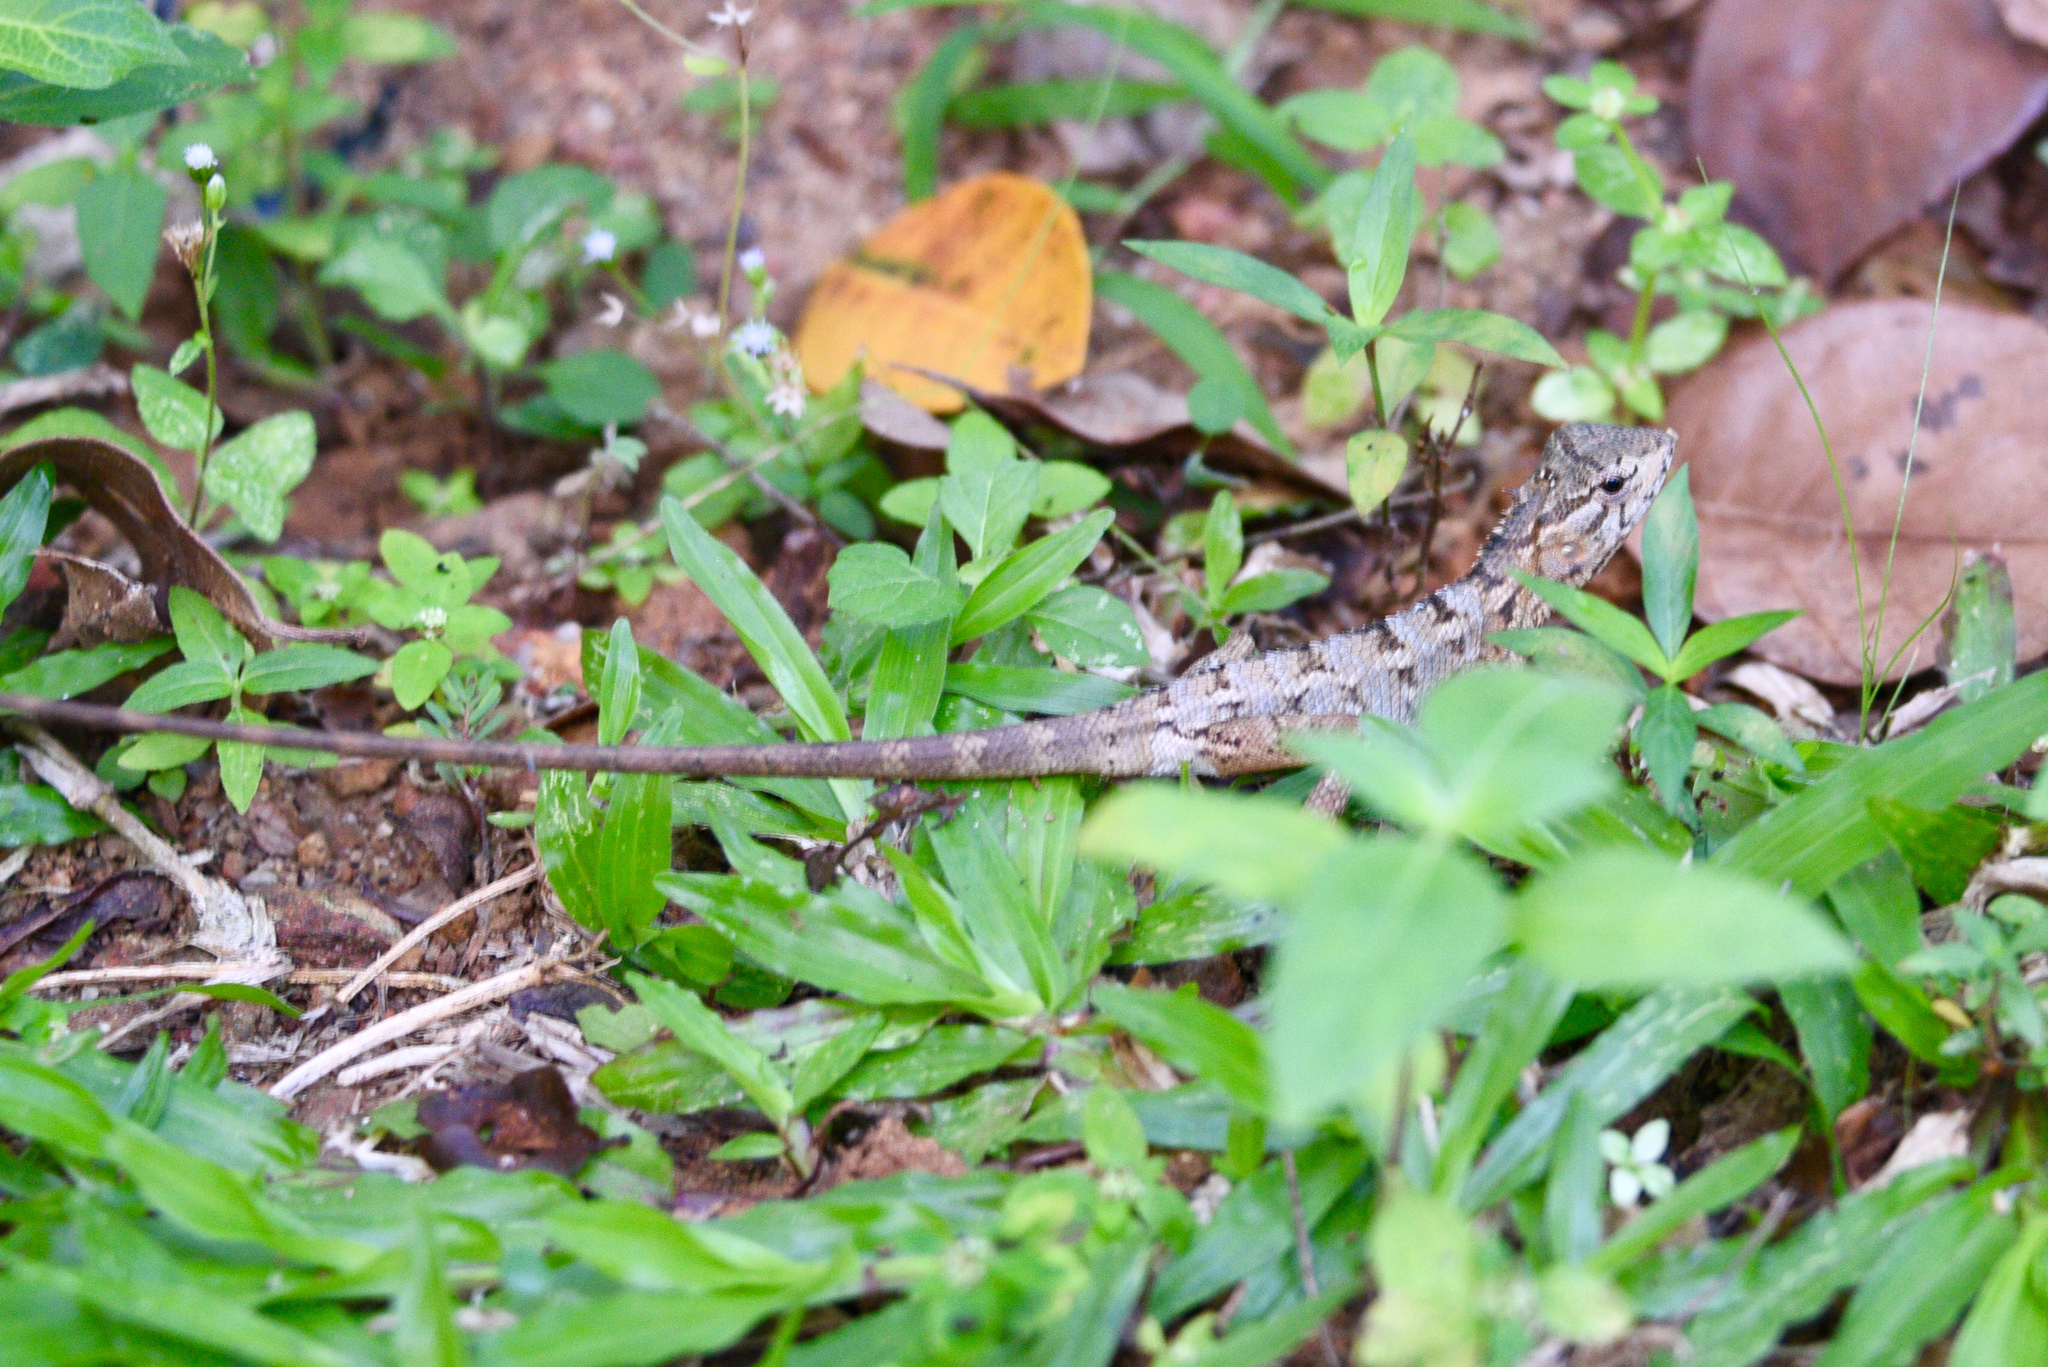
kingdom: Animalia
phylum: Chordata
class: Squamata
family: Agamidae
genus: Calotes
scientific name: Calotes versicolor
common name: Oriental garden lizard
